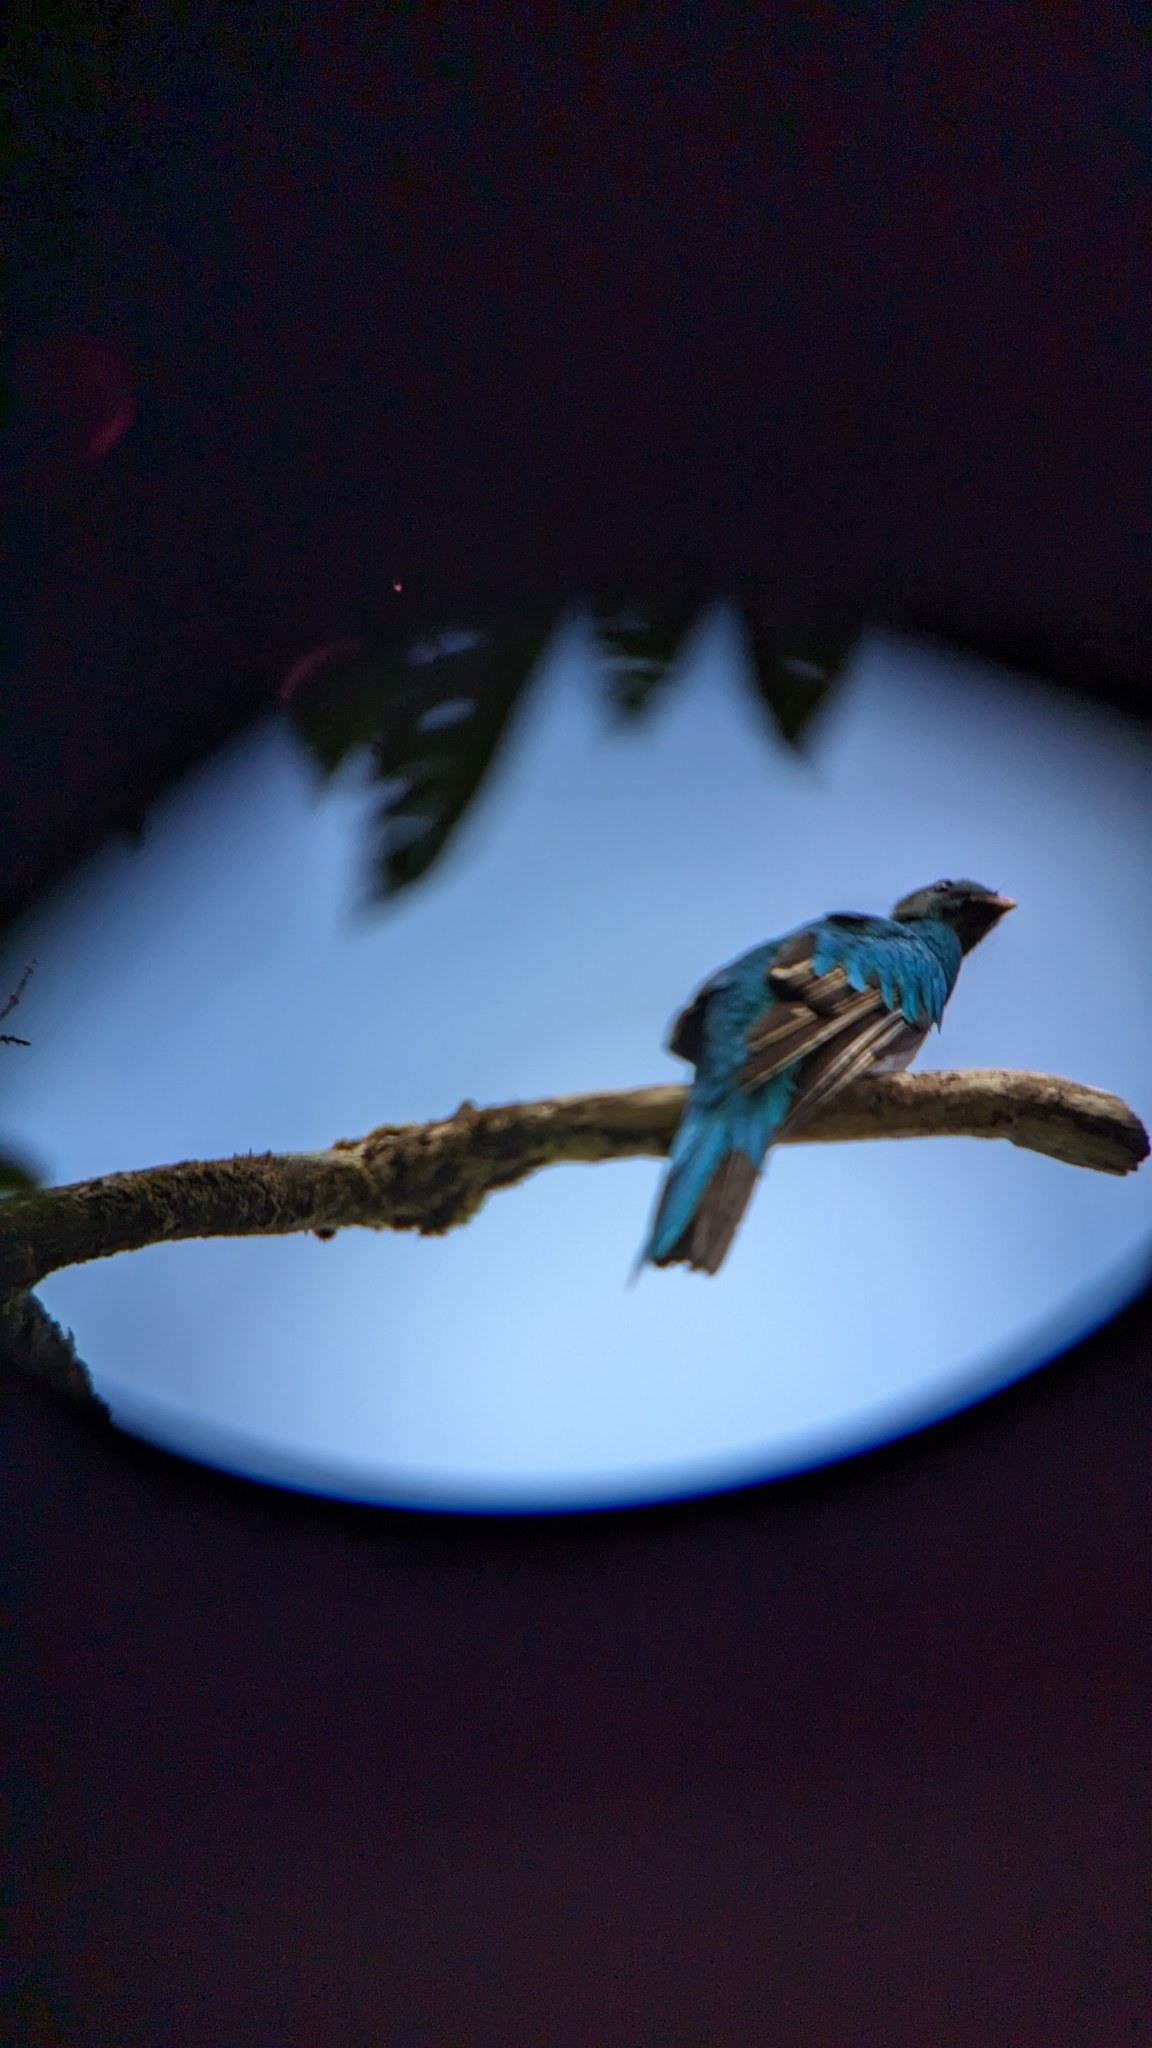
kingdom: Animalia
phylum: Chordata
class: Aves
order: Trogoniformes
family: Trogonidae
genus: Pharomachrus
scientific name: Pharomachrus mocinno
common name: Resplendent quetzal
